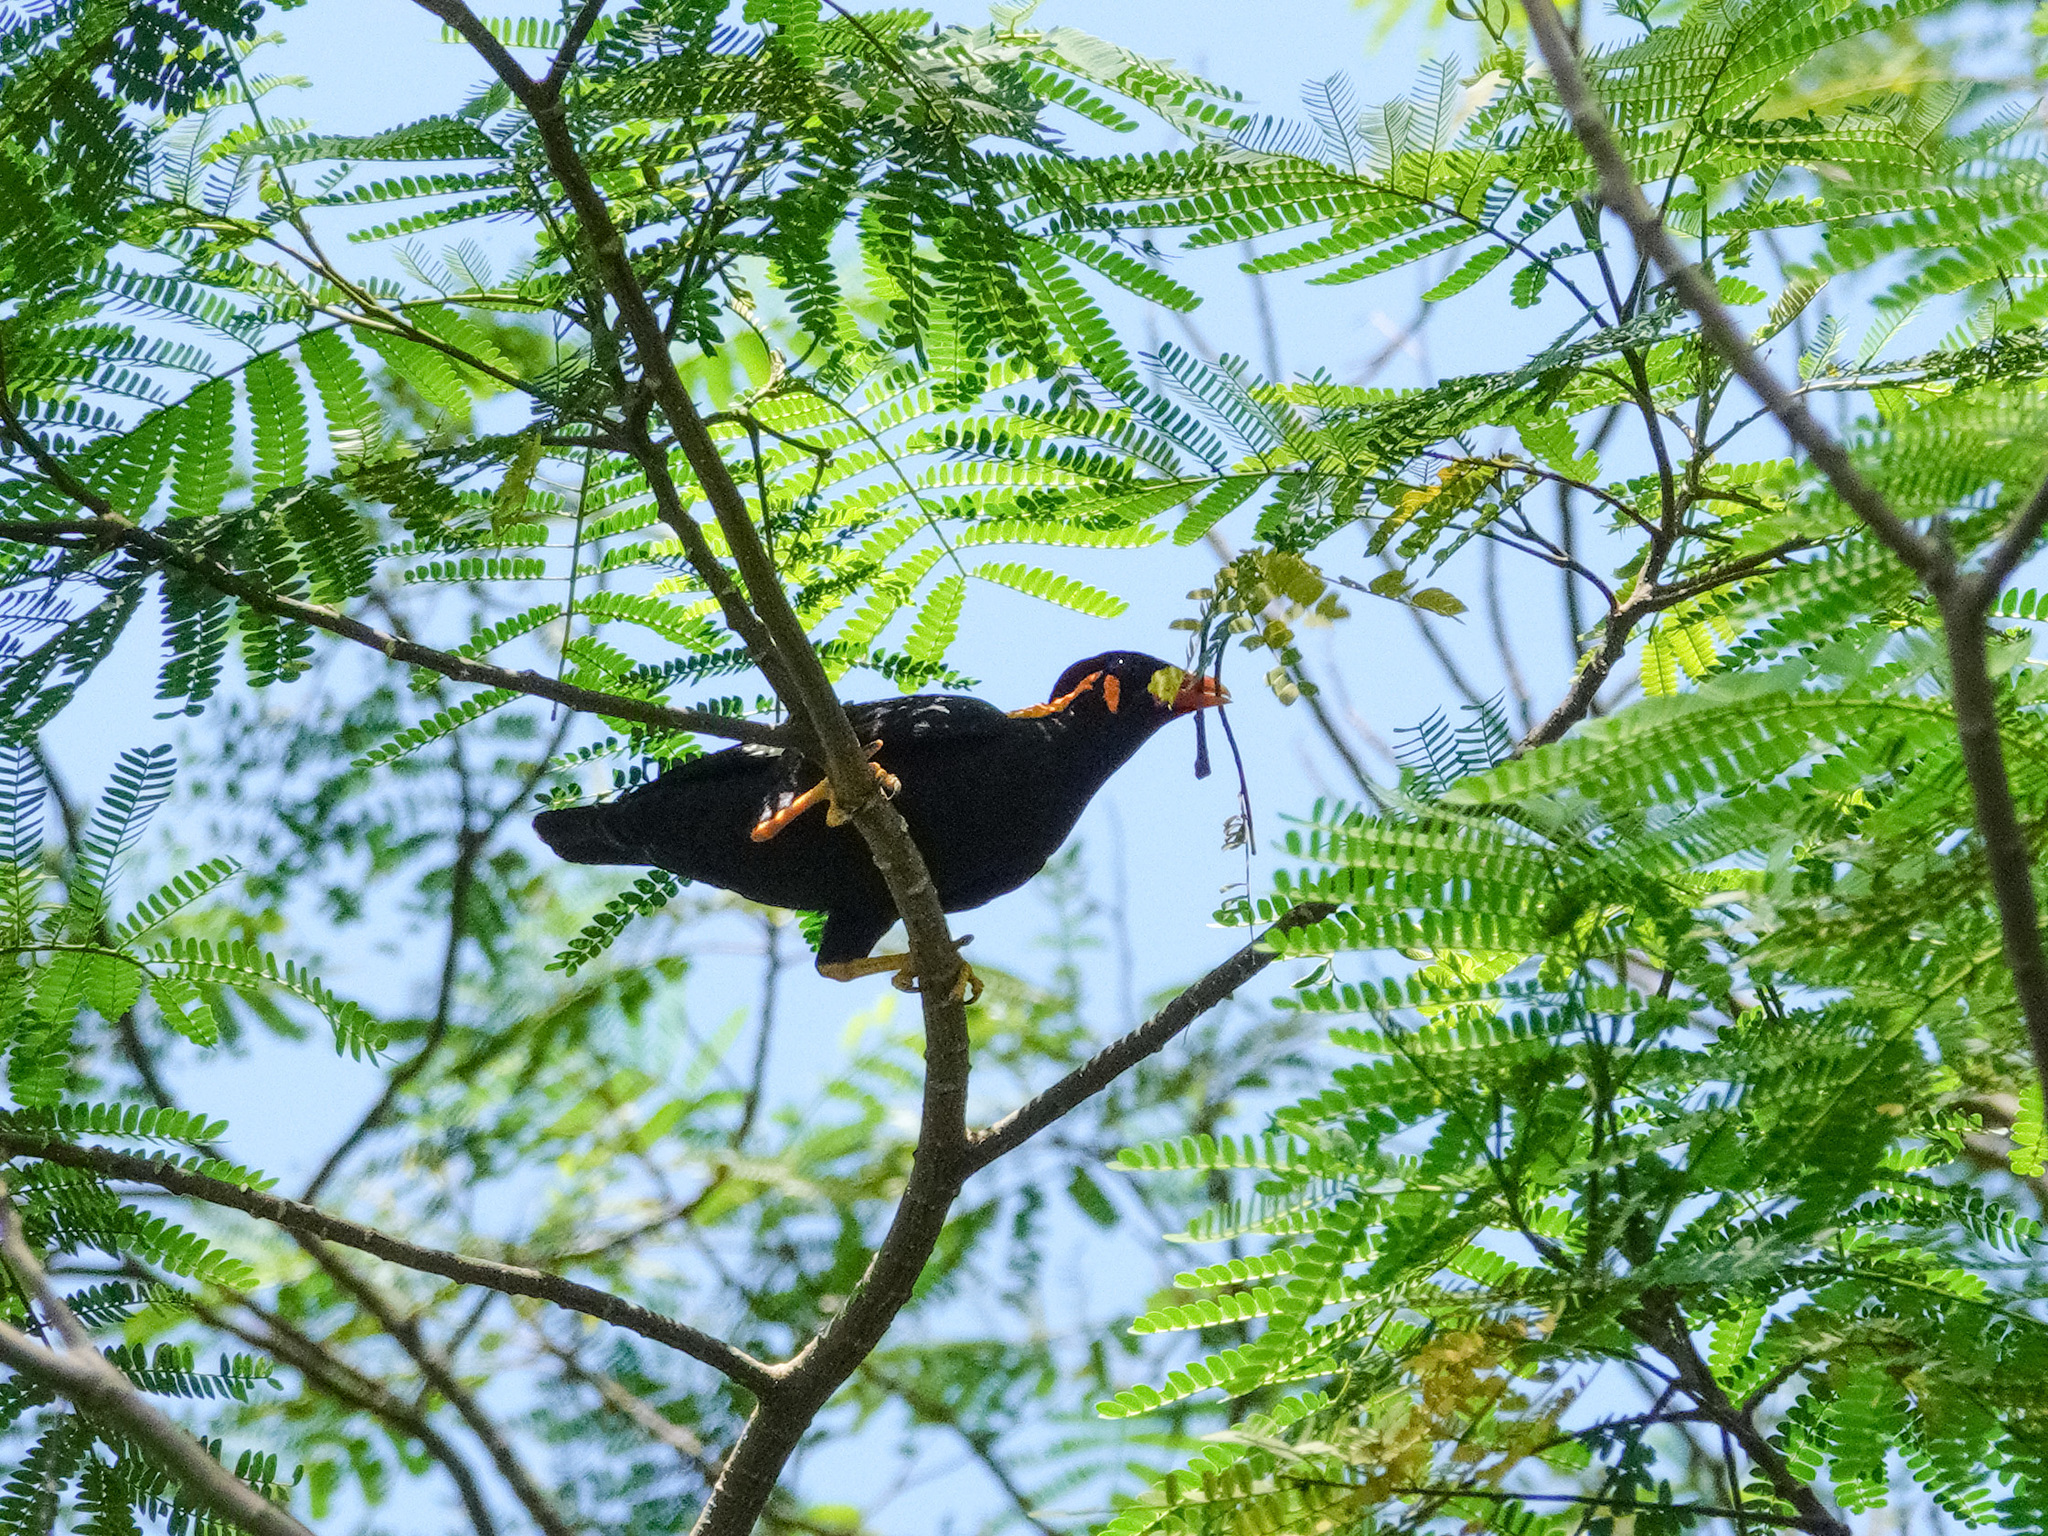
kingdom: Animalia
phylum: Chordata
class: Aves
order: Passeriformes
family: Sturnidae
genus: Gracula
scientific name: Gracula religiosa
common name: Common hill myna
